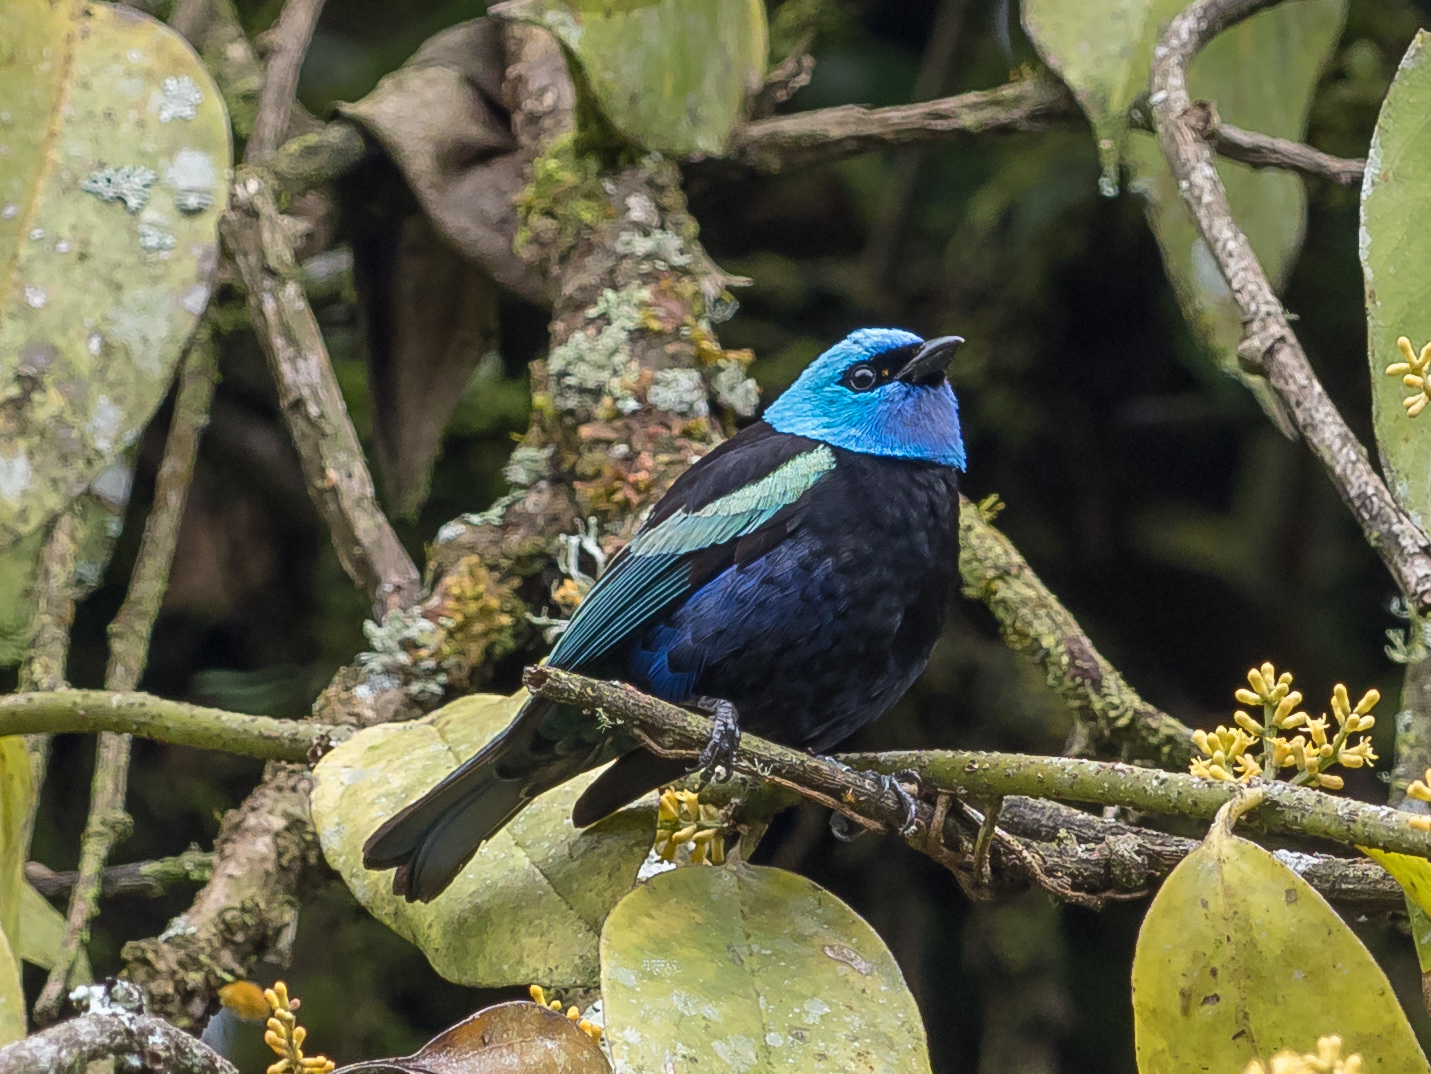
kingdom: Animalia
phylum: Chordata
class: Aves
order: Passeriformes
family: Thraupidae
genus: Stilpnia
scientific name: Stilpnia cyanicollis
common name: Blue-necked tanager
